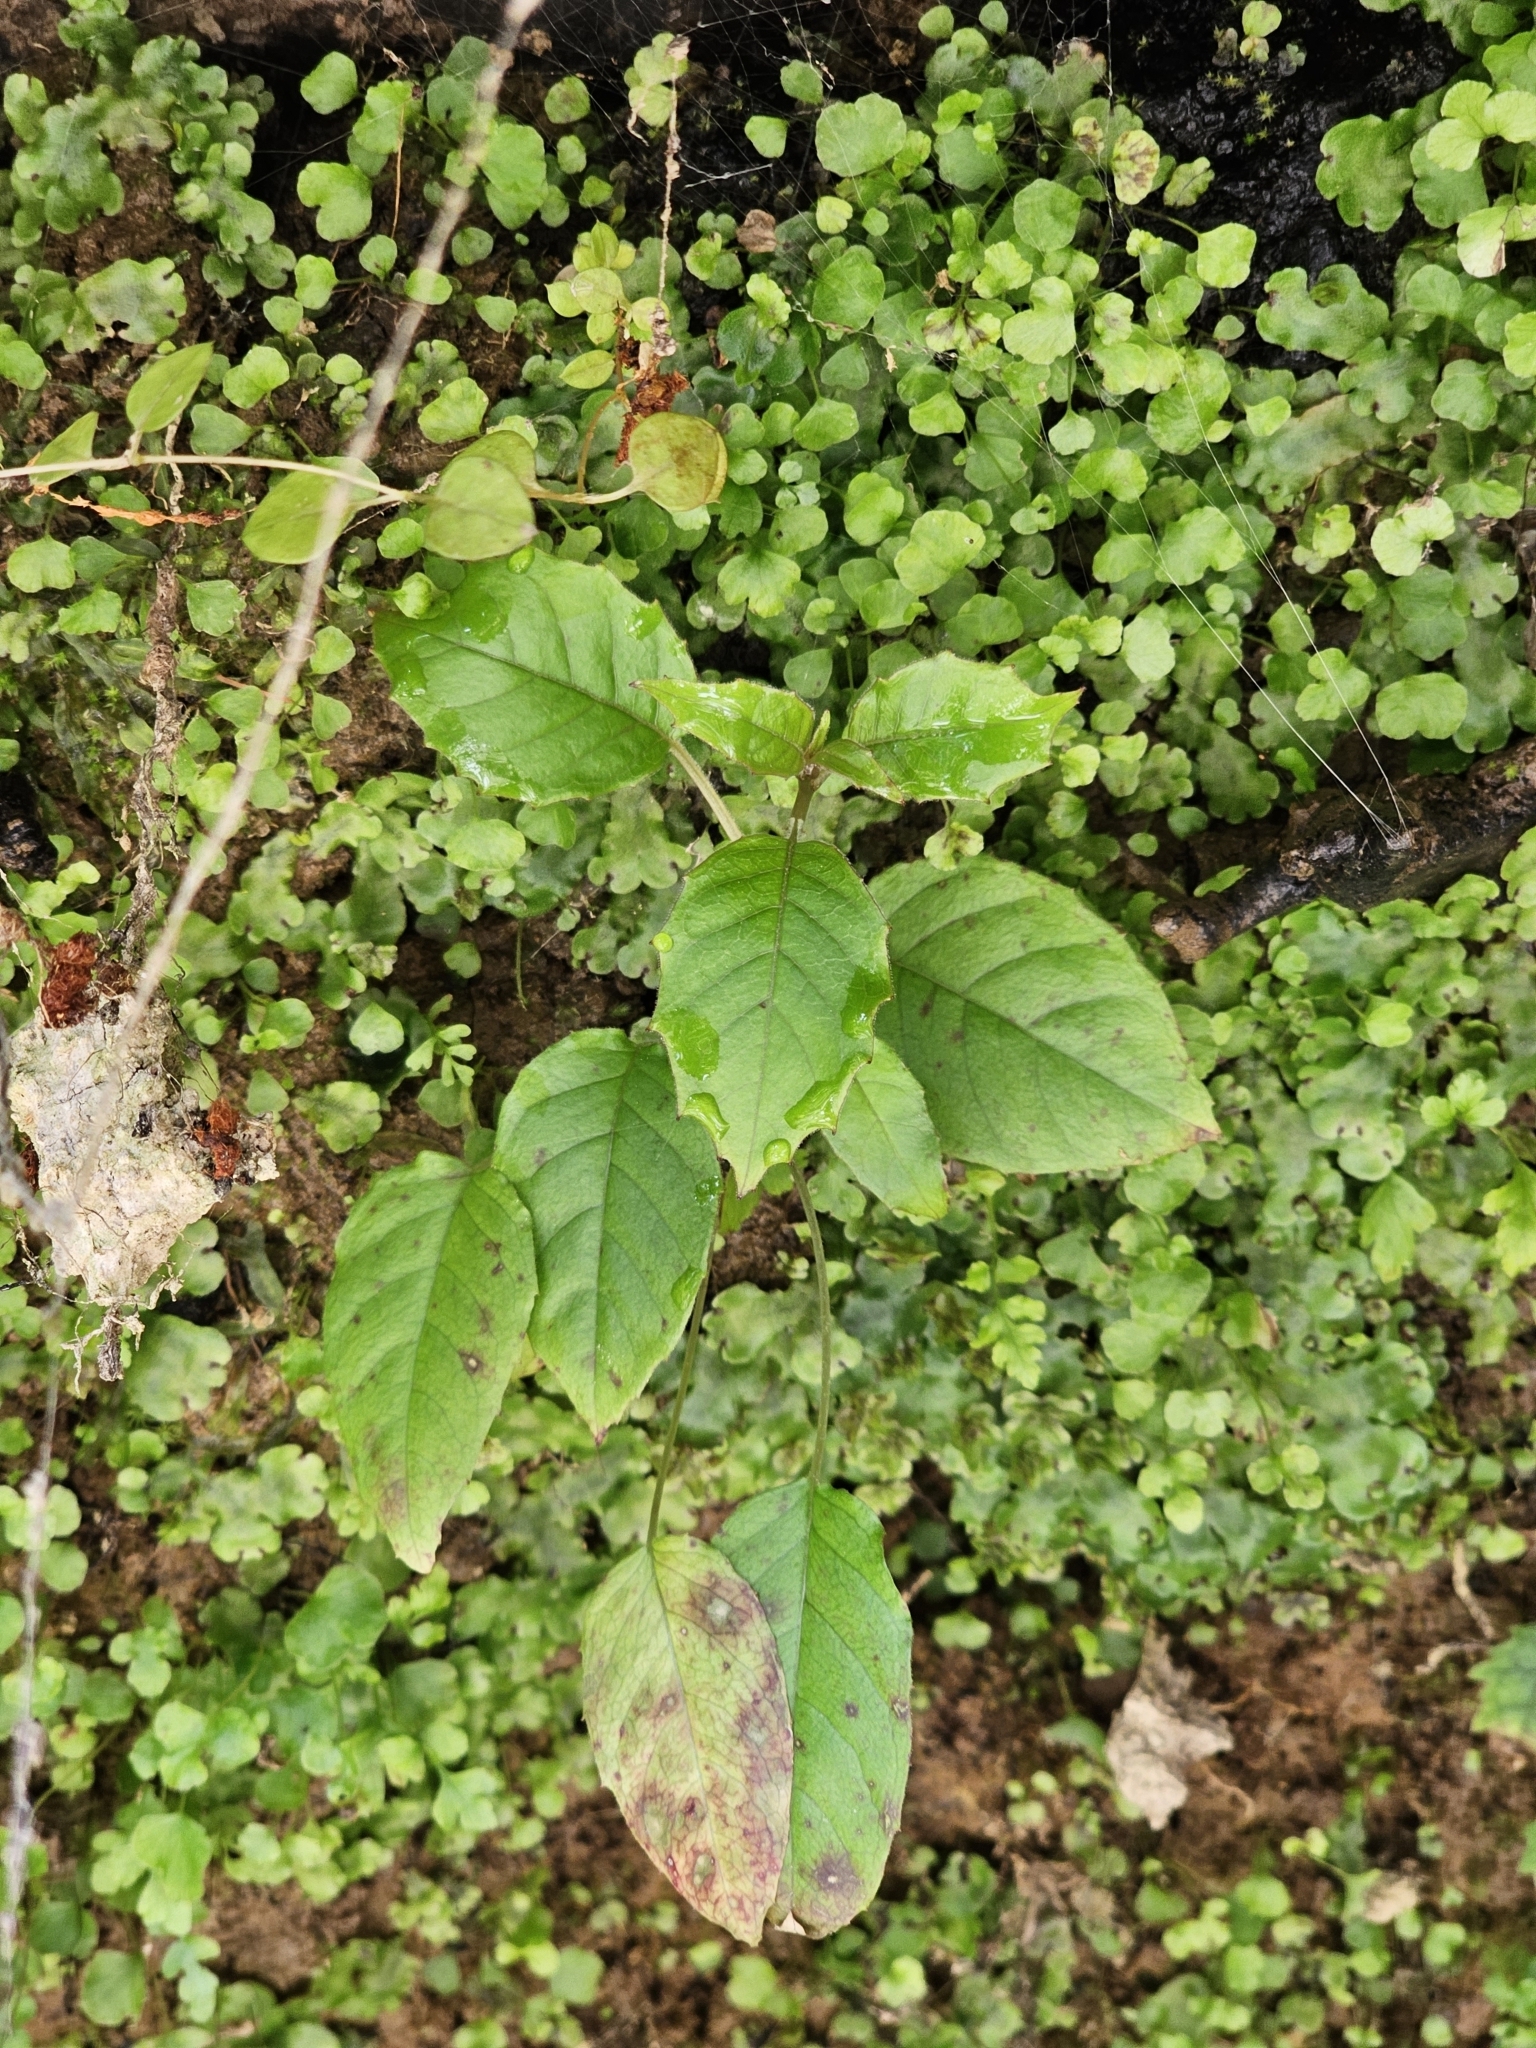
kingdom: Plantae
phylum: Tracheophyta
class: Magnoliopsida
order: Myrtales
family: Onagraceae
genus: Fuchsia
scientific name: Fuchsia excorticata
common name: Tree fuchsia
